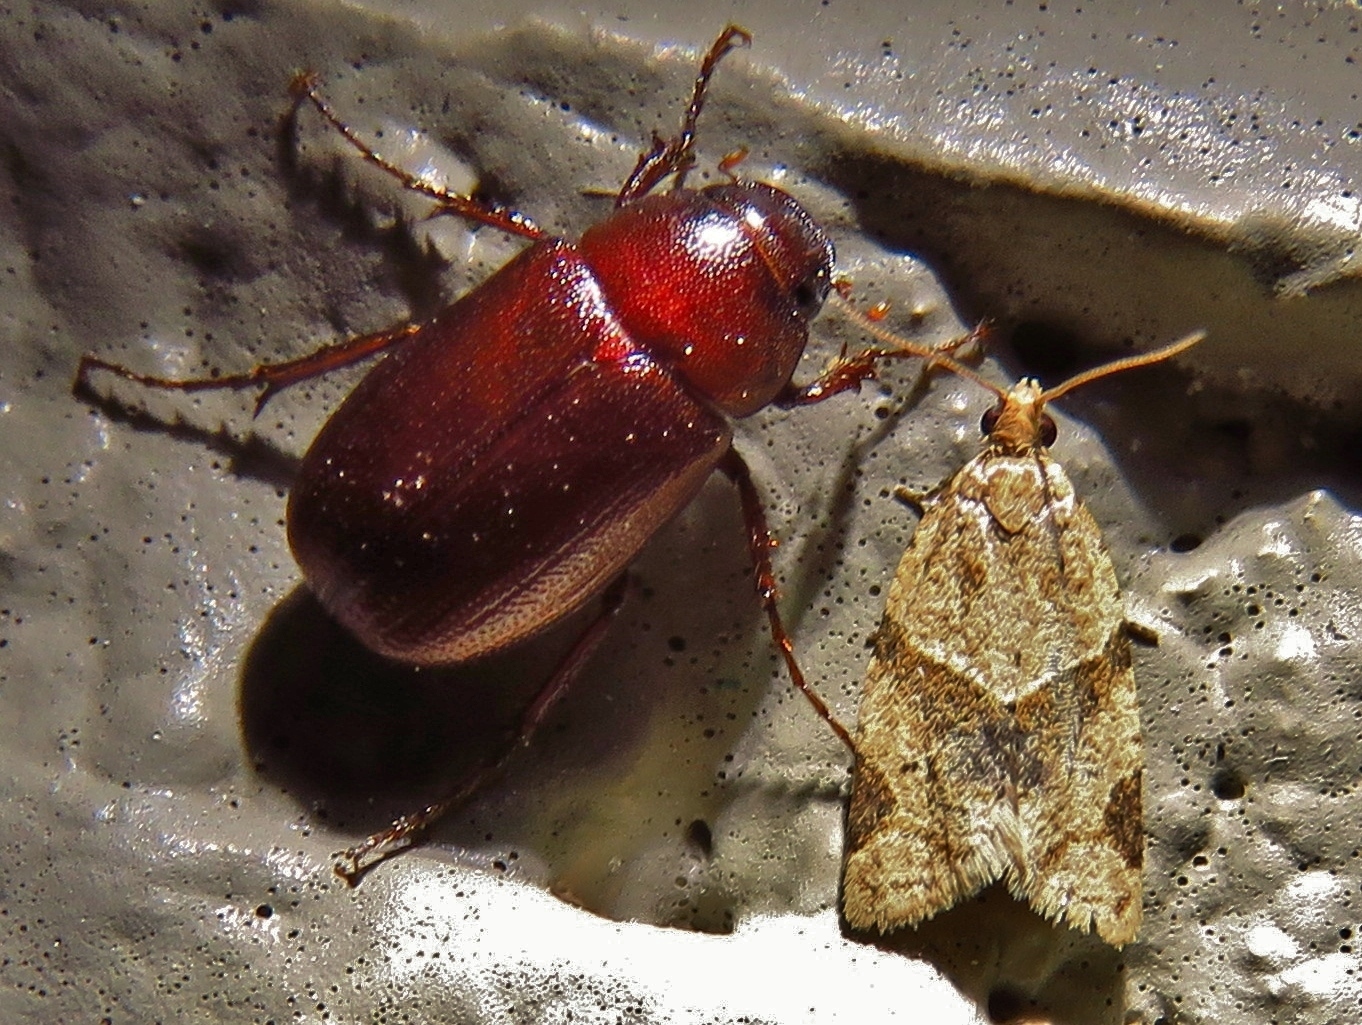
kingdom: Animalia
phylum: Arthropoda
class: Insecta
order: Lepidoptera
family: Tortricidae
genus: Clepsis
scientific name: Clepsis peritana
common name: Garden tortrix
